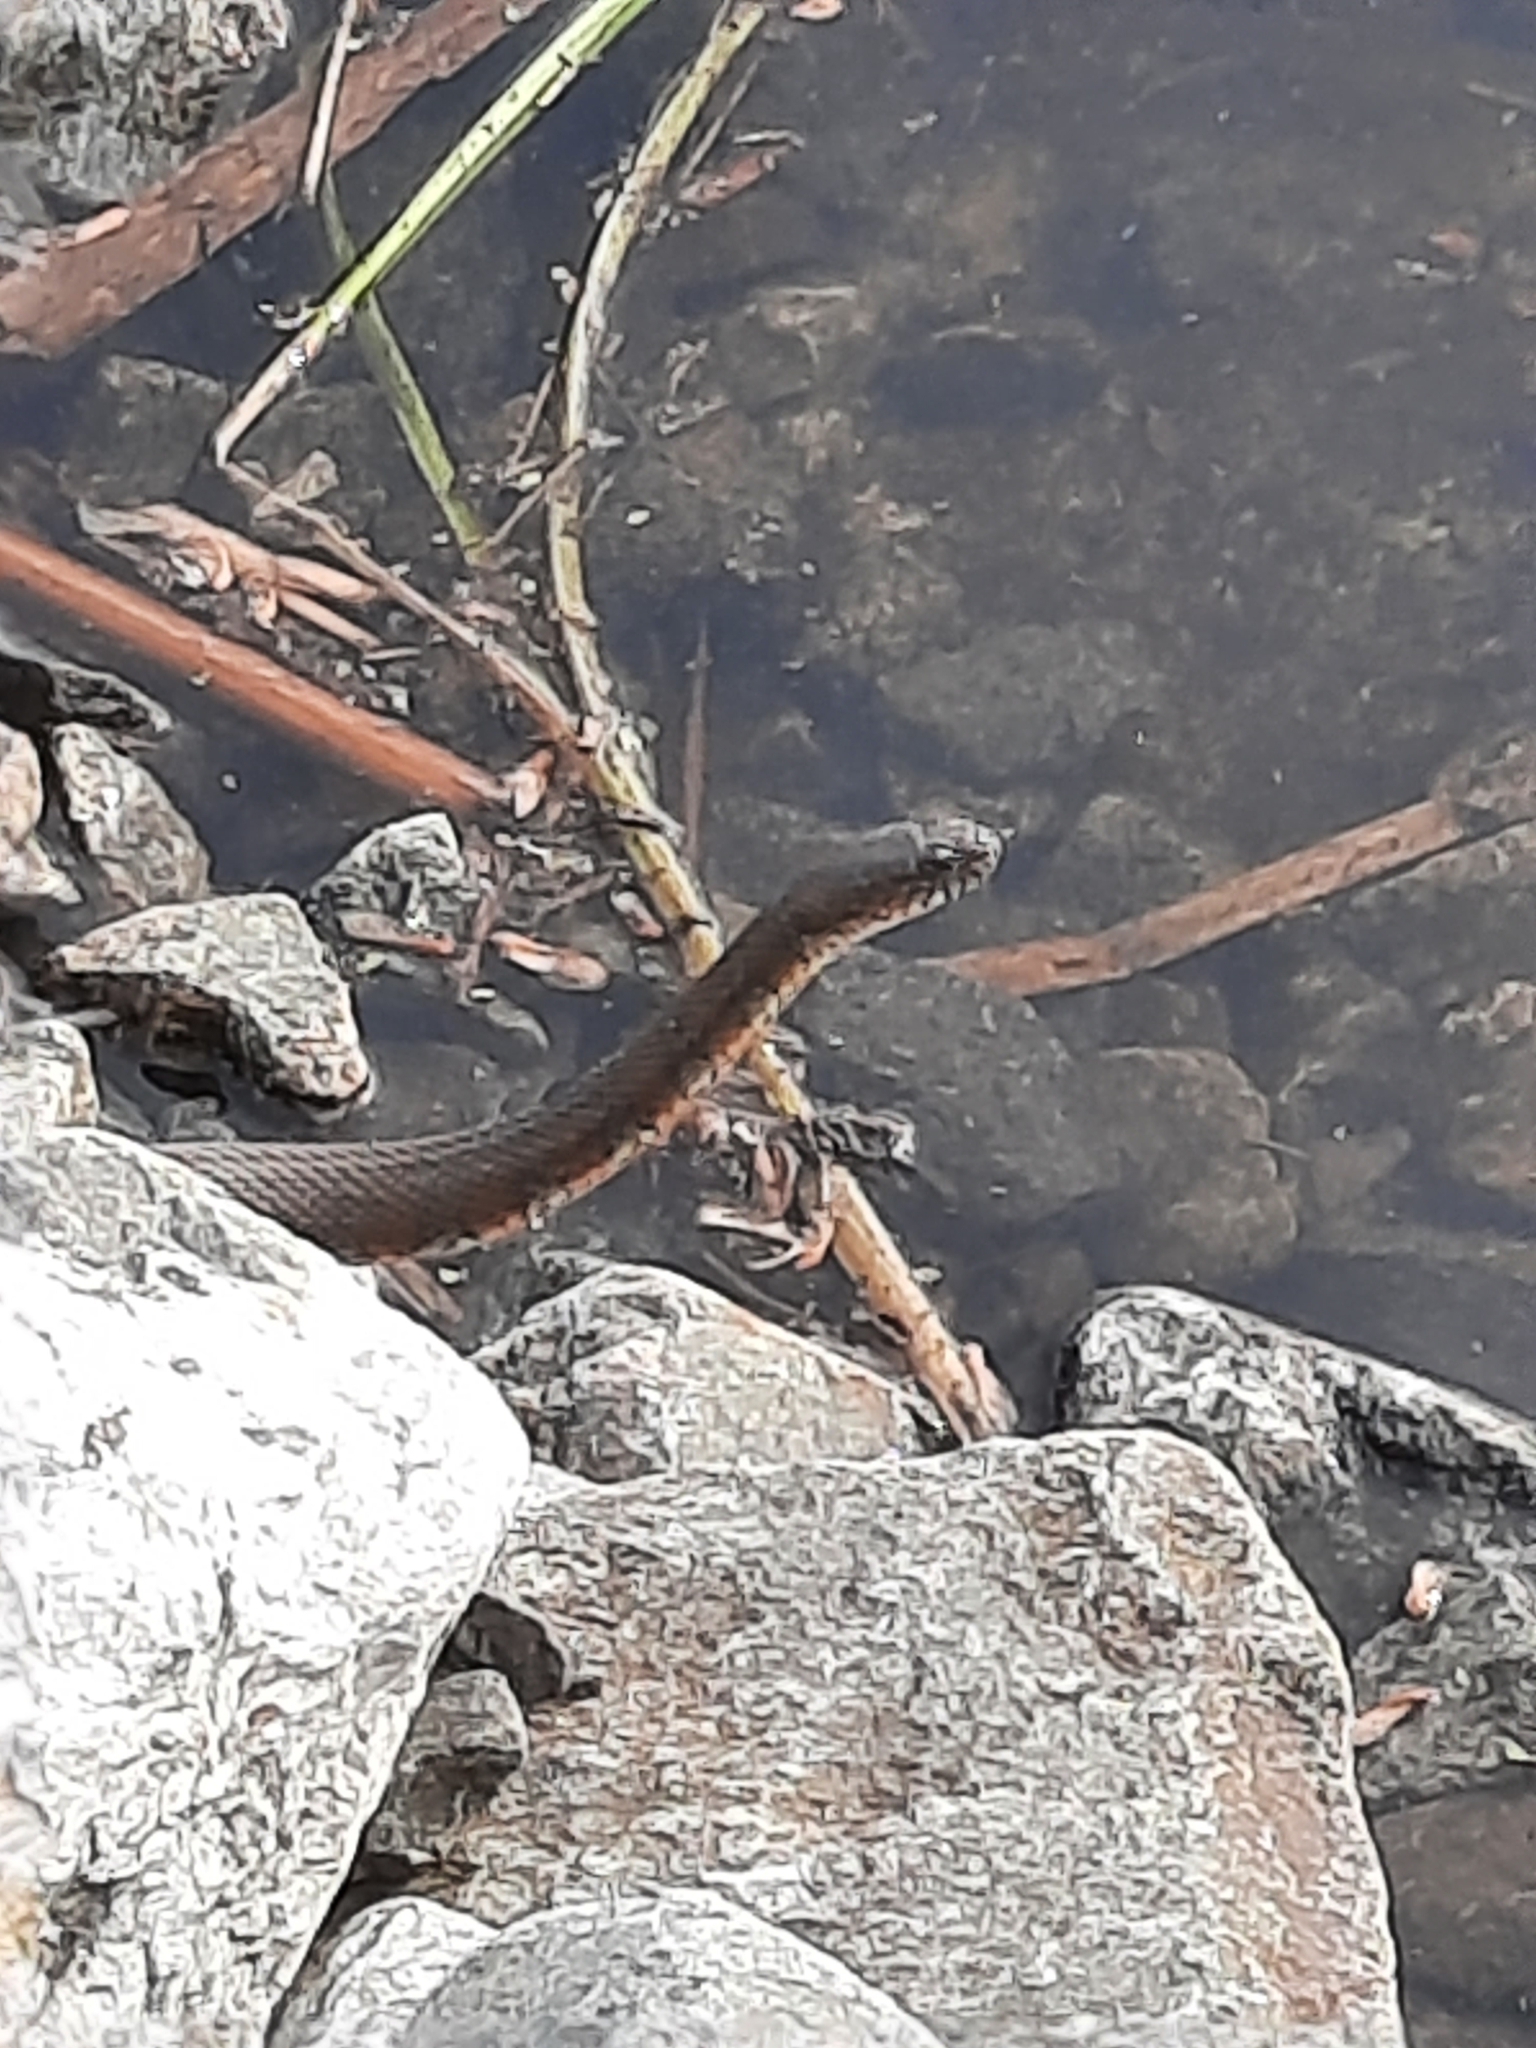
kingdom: Animalia
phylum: Chordata
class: Squamata
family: Colubridae
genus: Nerodia
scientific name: Nerodia sipedon
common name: Northern water snake
